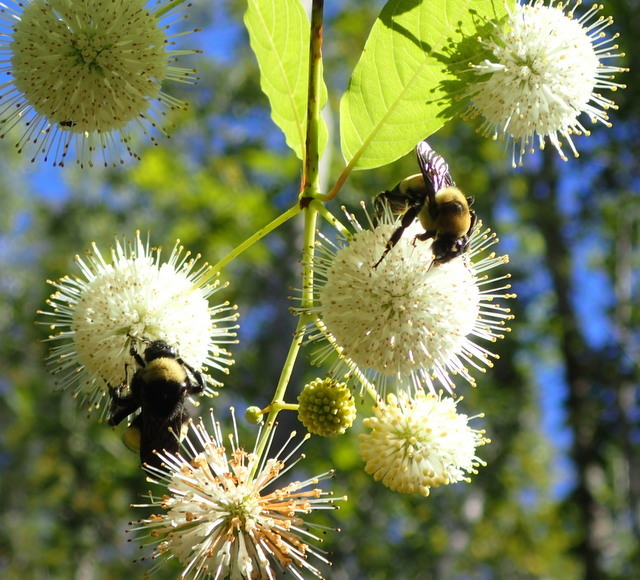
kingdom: Animalia
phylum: Arthropoda
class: Insecta
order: Hymenoptera
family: Apidae
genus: Bombus
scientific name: Bombus fraternus
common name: Southern plains bumble bee
